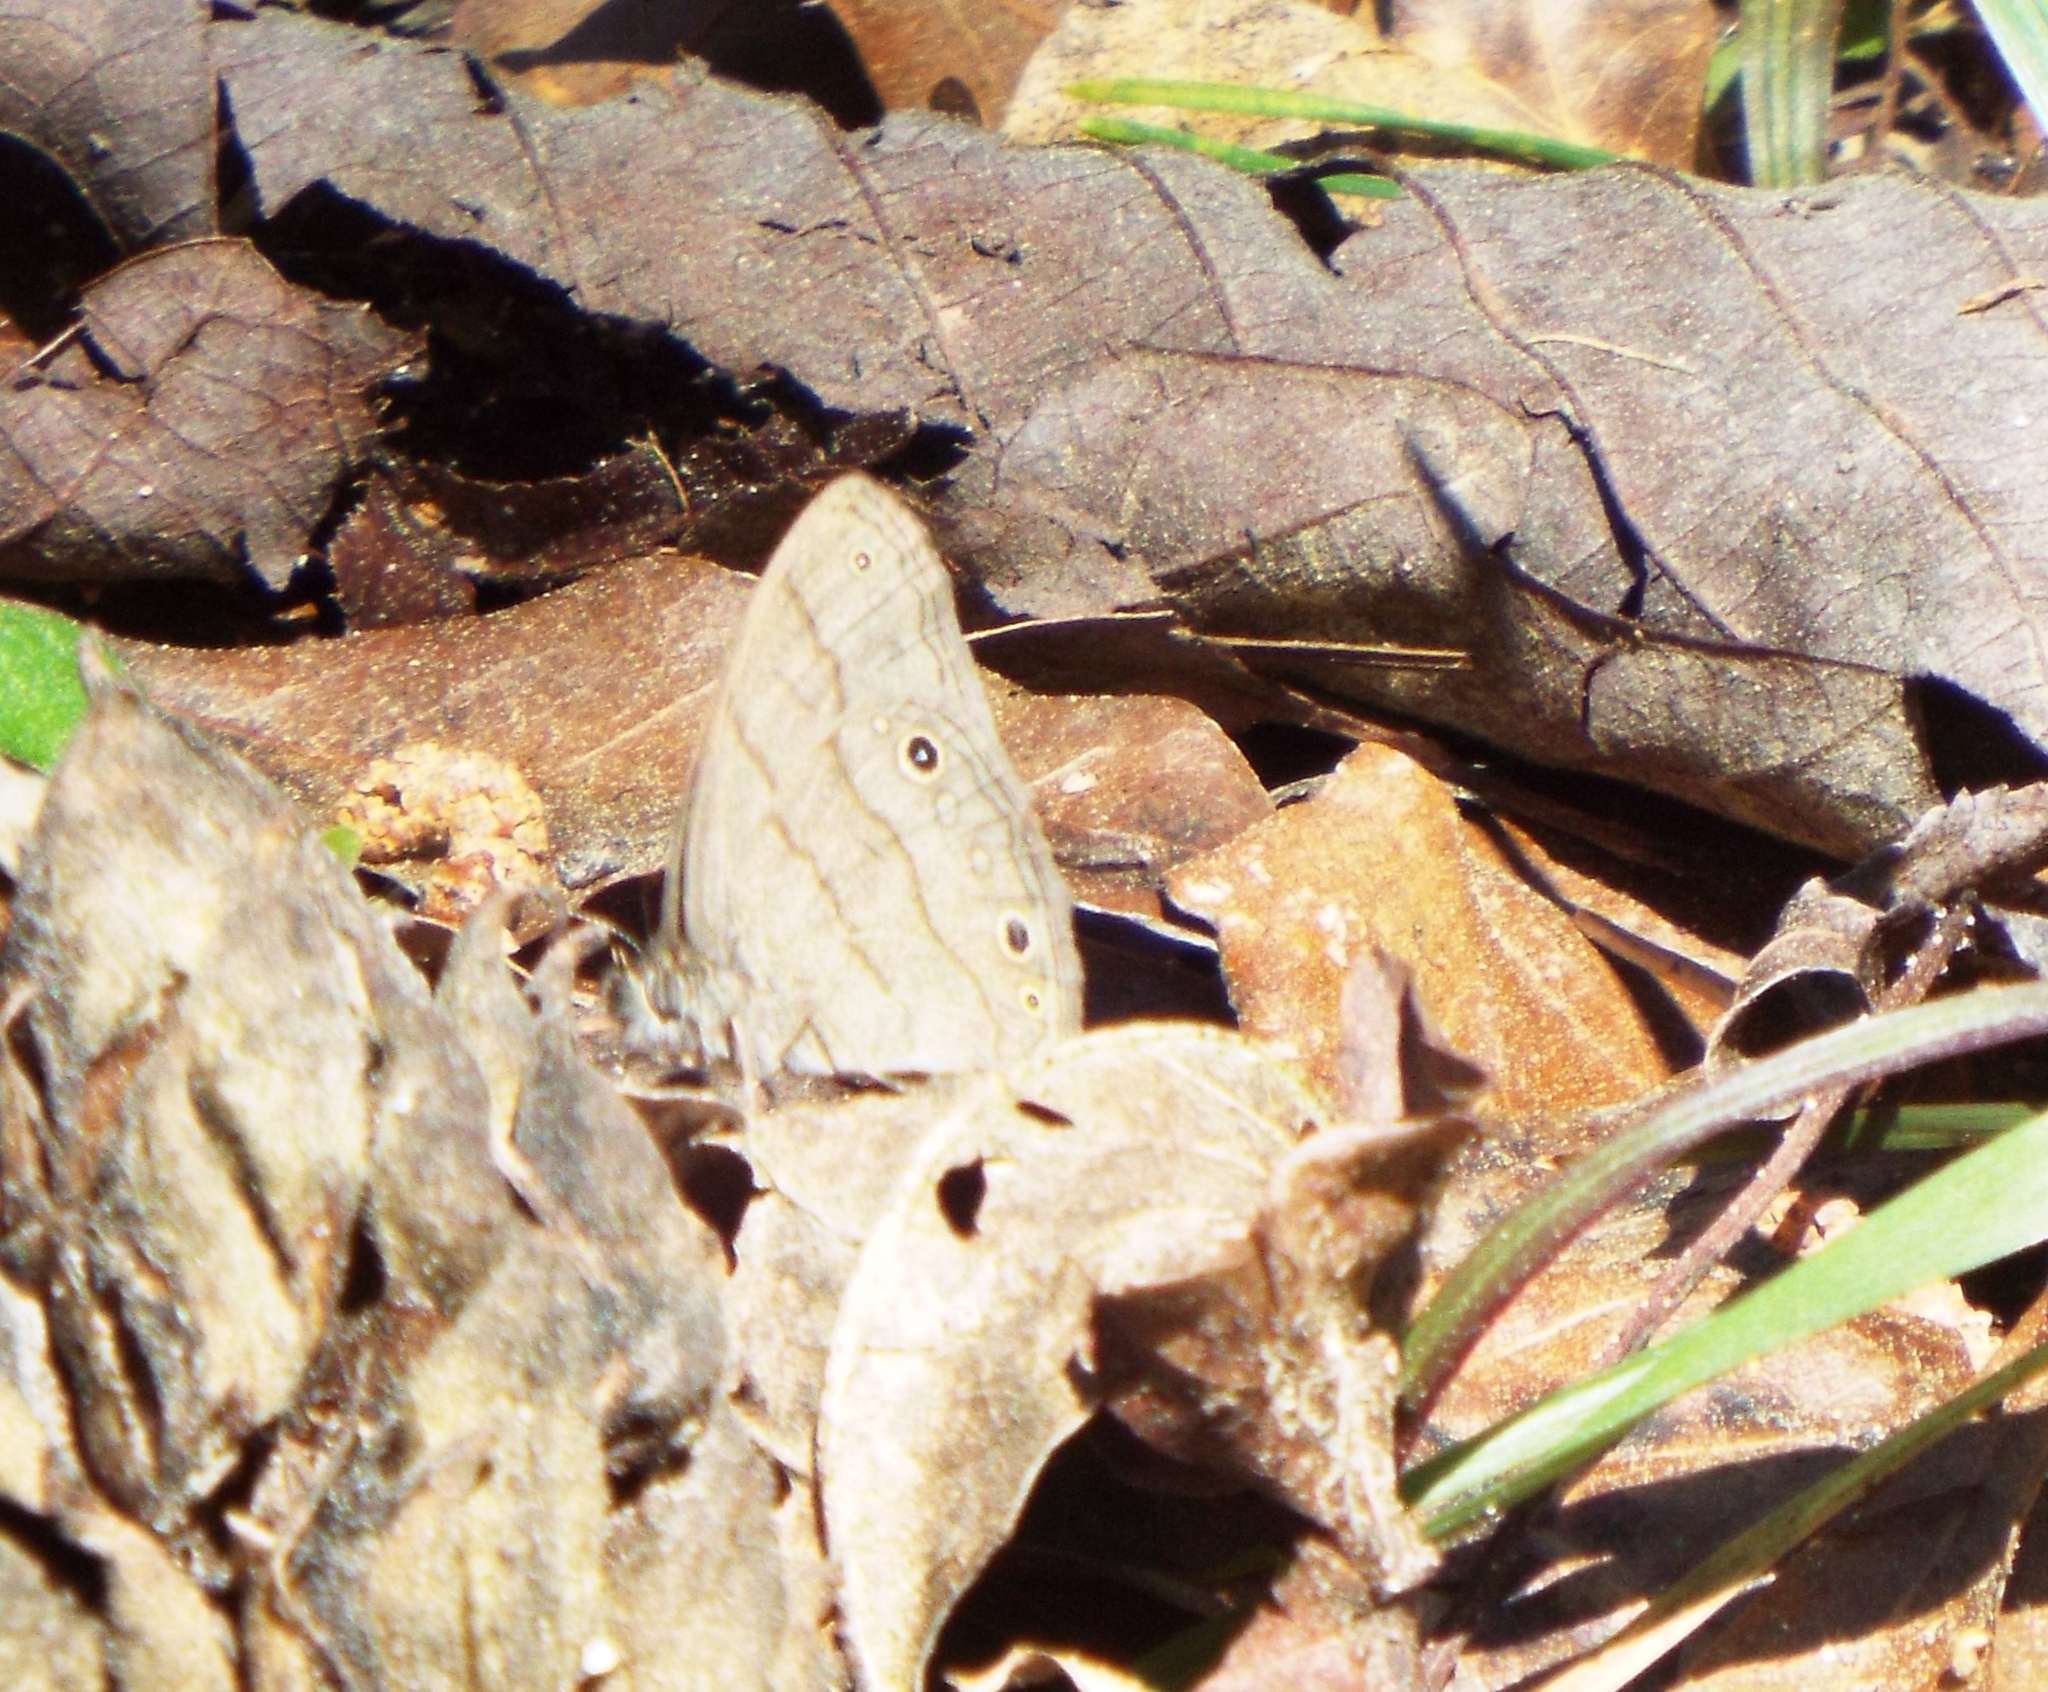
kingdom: Animalia
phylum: Arthropoda
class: Insecta
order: Lepidoptera
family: Nymphalidae
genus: Hermeuptychia
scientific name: Hermeuptychia hermes
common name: Hermes satyr
